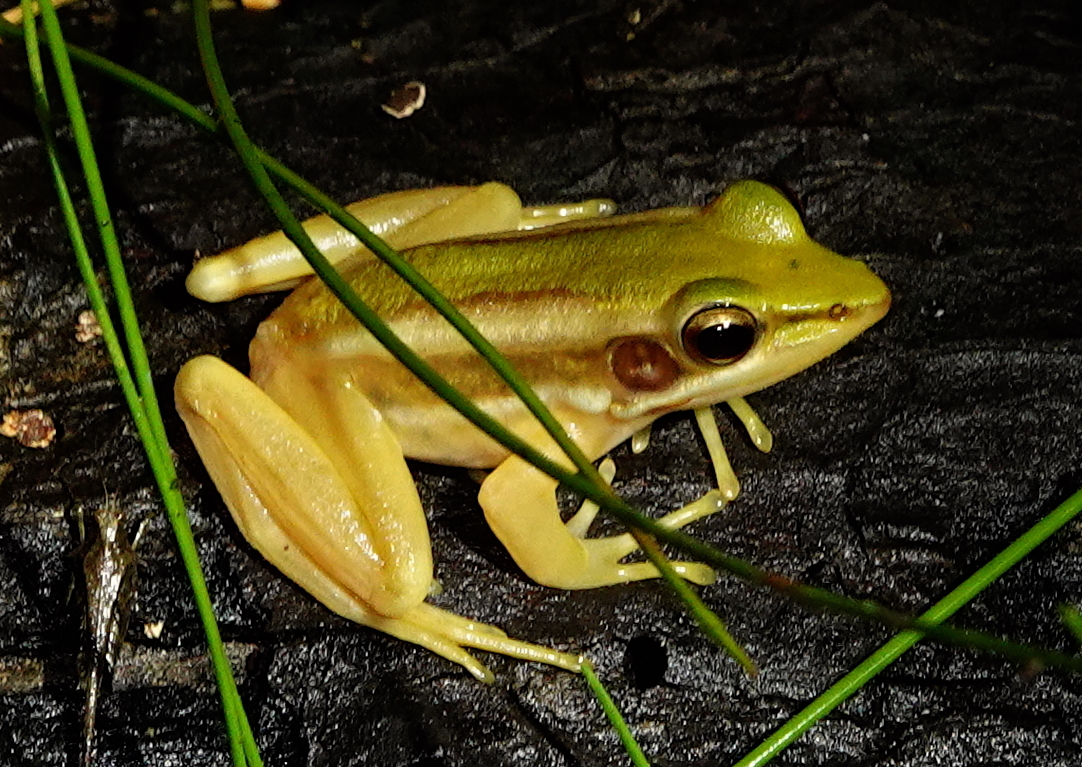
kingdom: Animalia
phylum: Chordata
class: Amphibia
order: Anura
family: Ranidae
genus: Hylarana
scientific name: Hylarana erythraea
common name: Common green frog/green paddy frog/leaf frog
